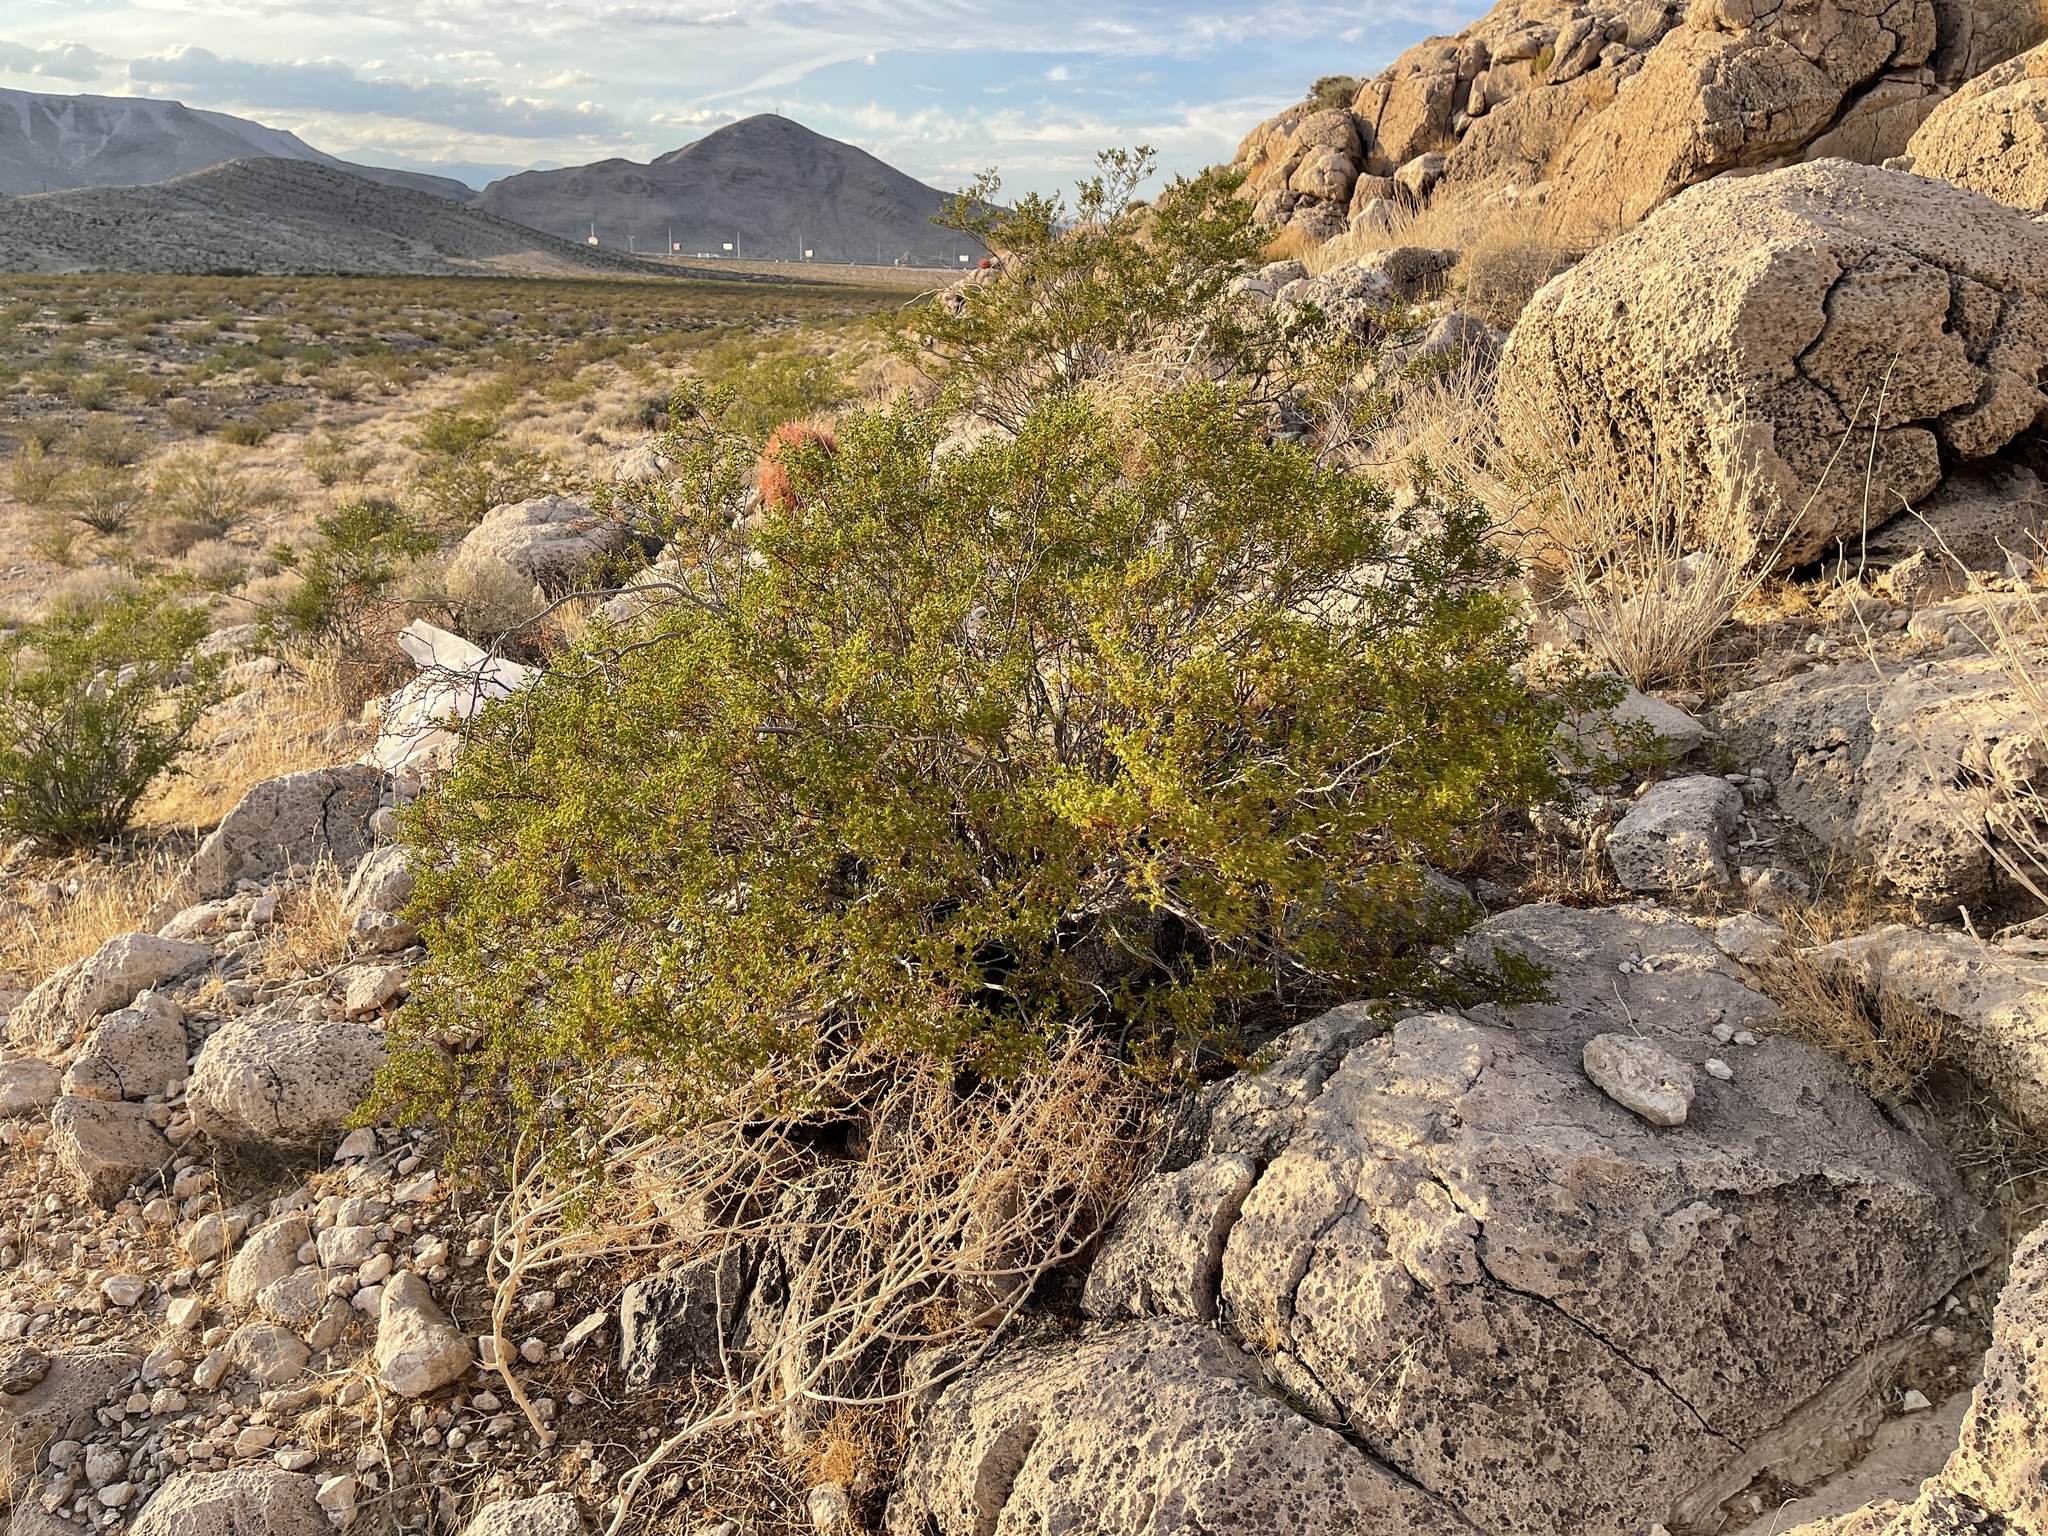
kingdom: Plantae
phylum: Tracheophyta
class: Magnoliopsida
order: Zygophyllales
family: Zygophyllaceae
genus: Larrea
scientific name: Larrea tridentata
